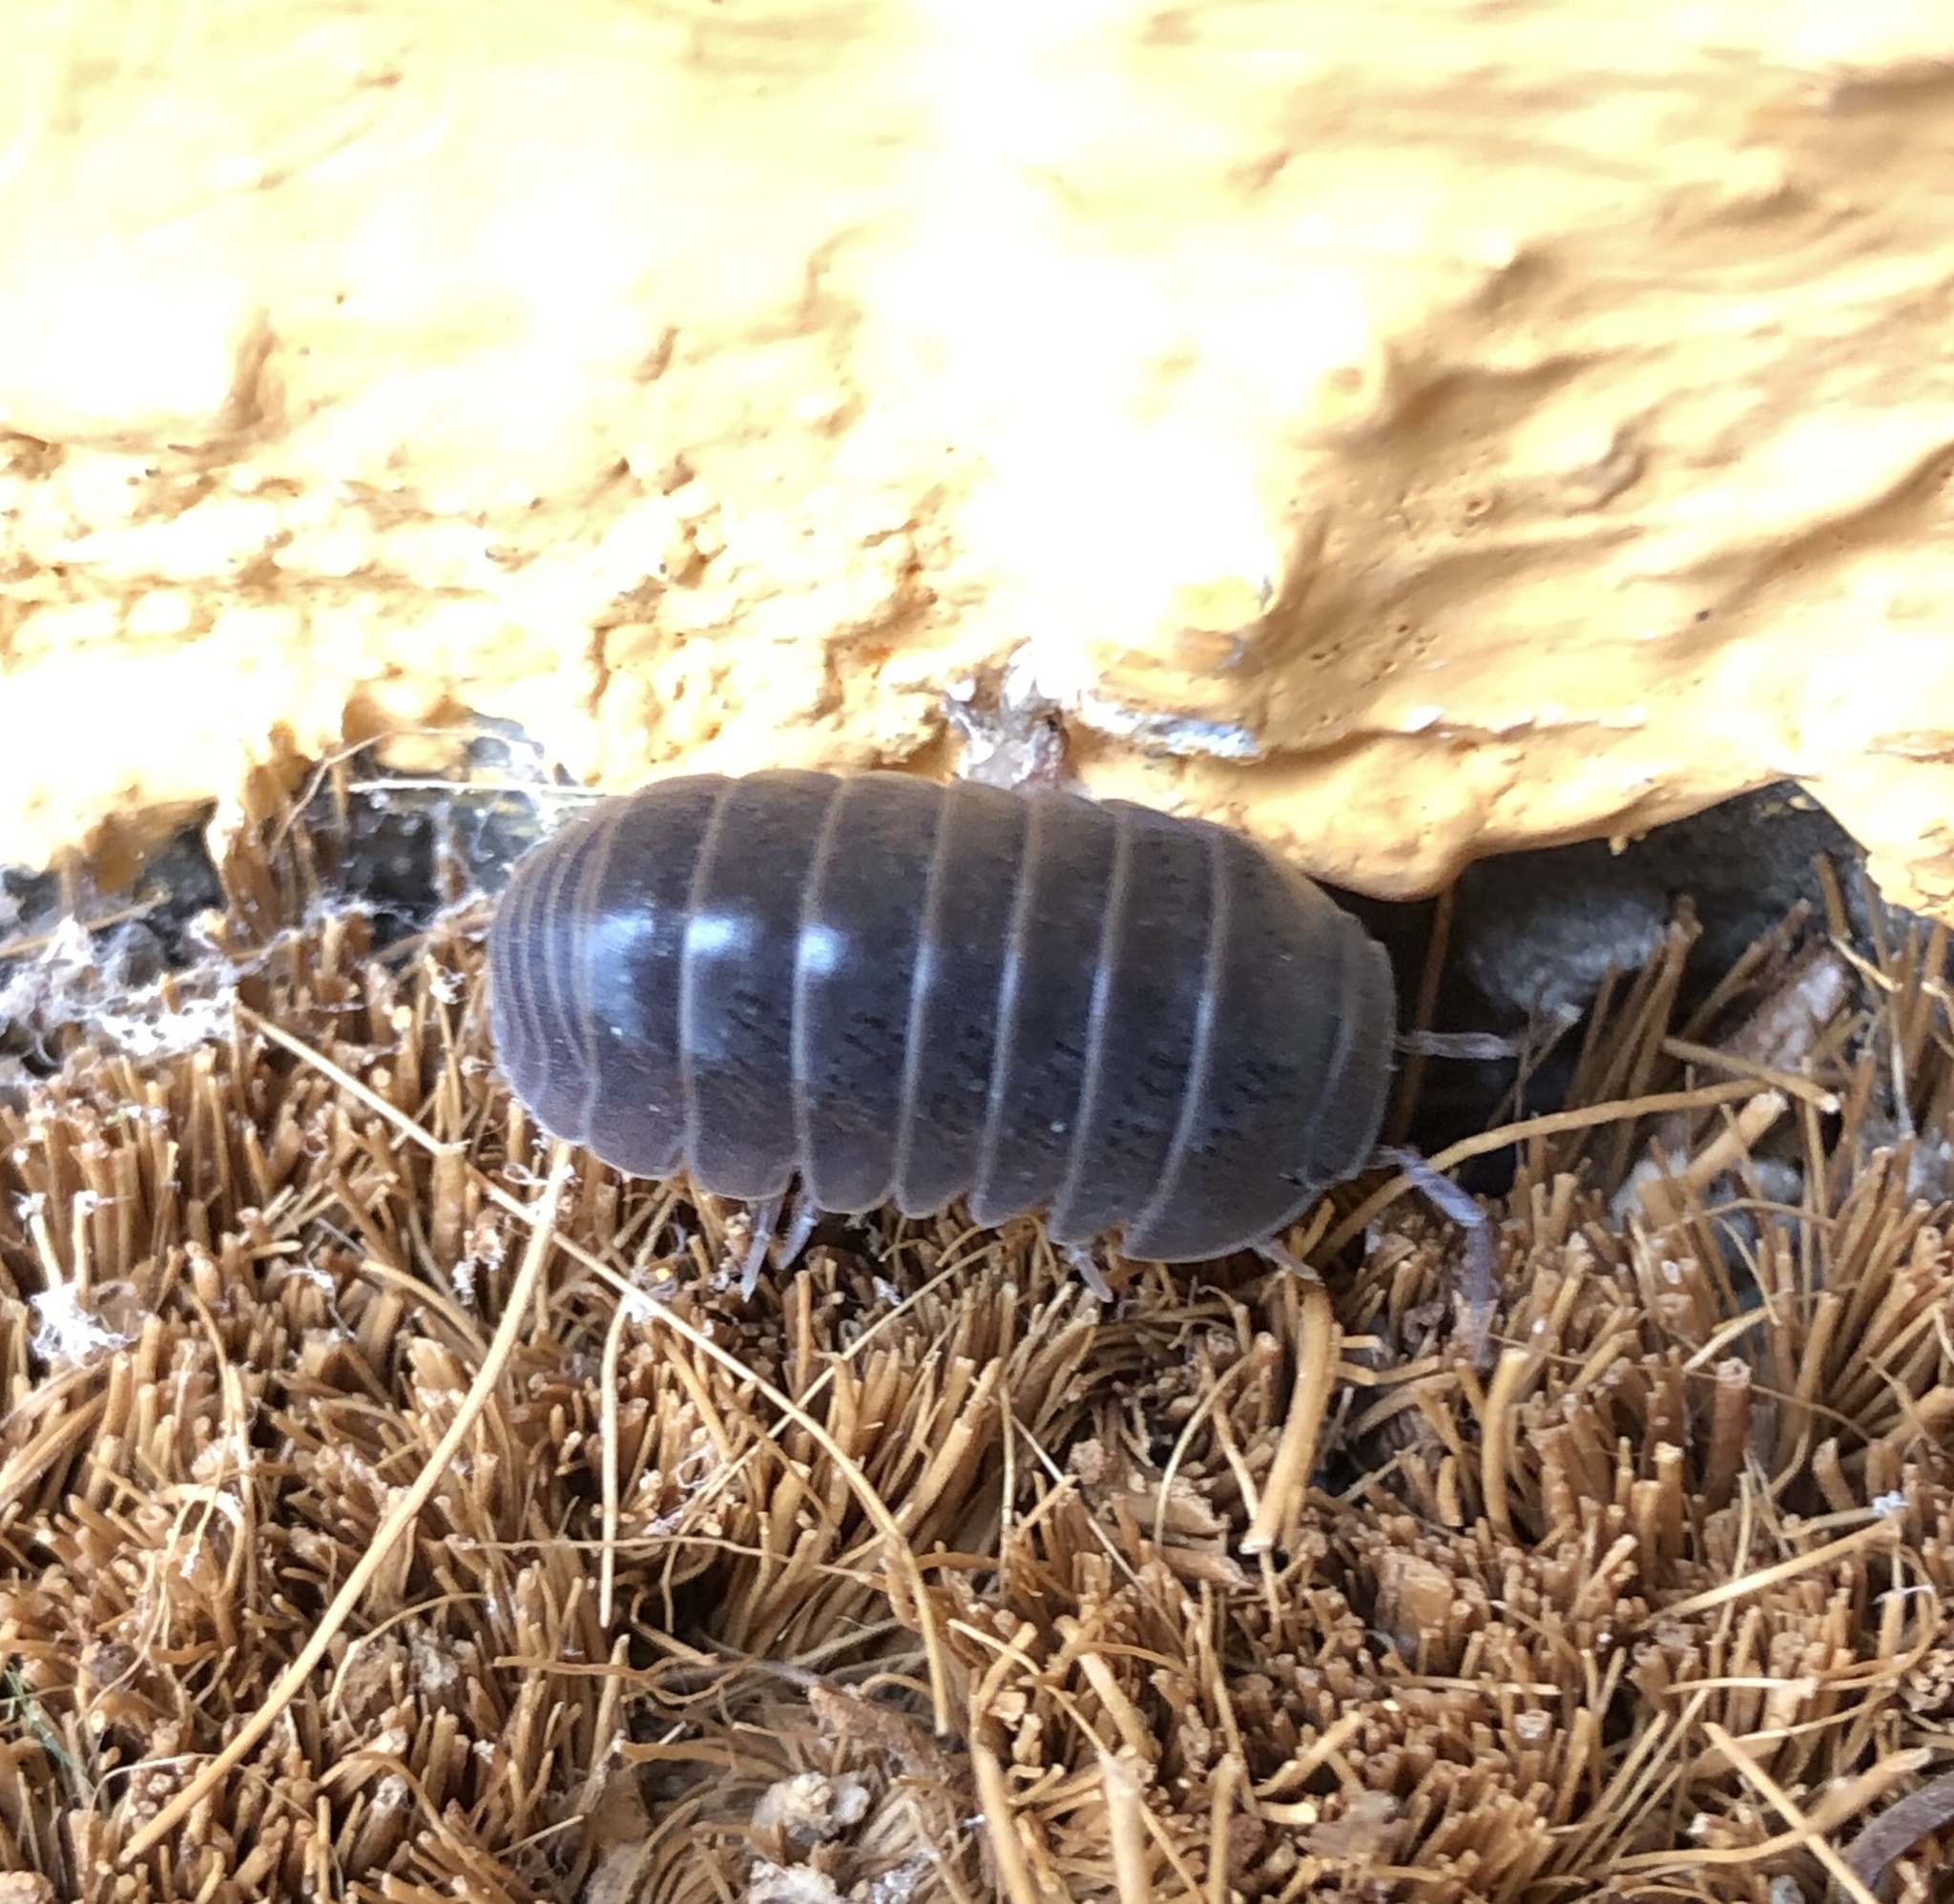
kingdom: Animalia
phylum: Arthropoda
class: Malacostraca
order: Isopoda
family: Armadillidae
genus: Armadillo
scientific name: Armadillo officinalis
